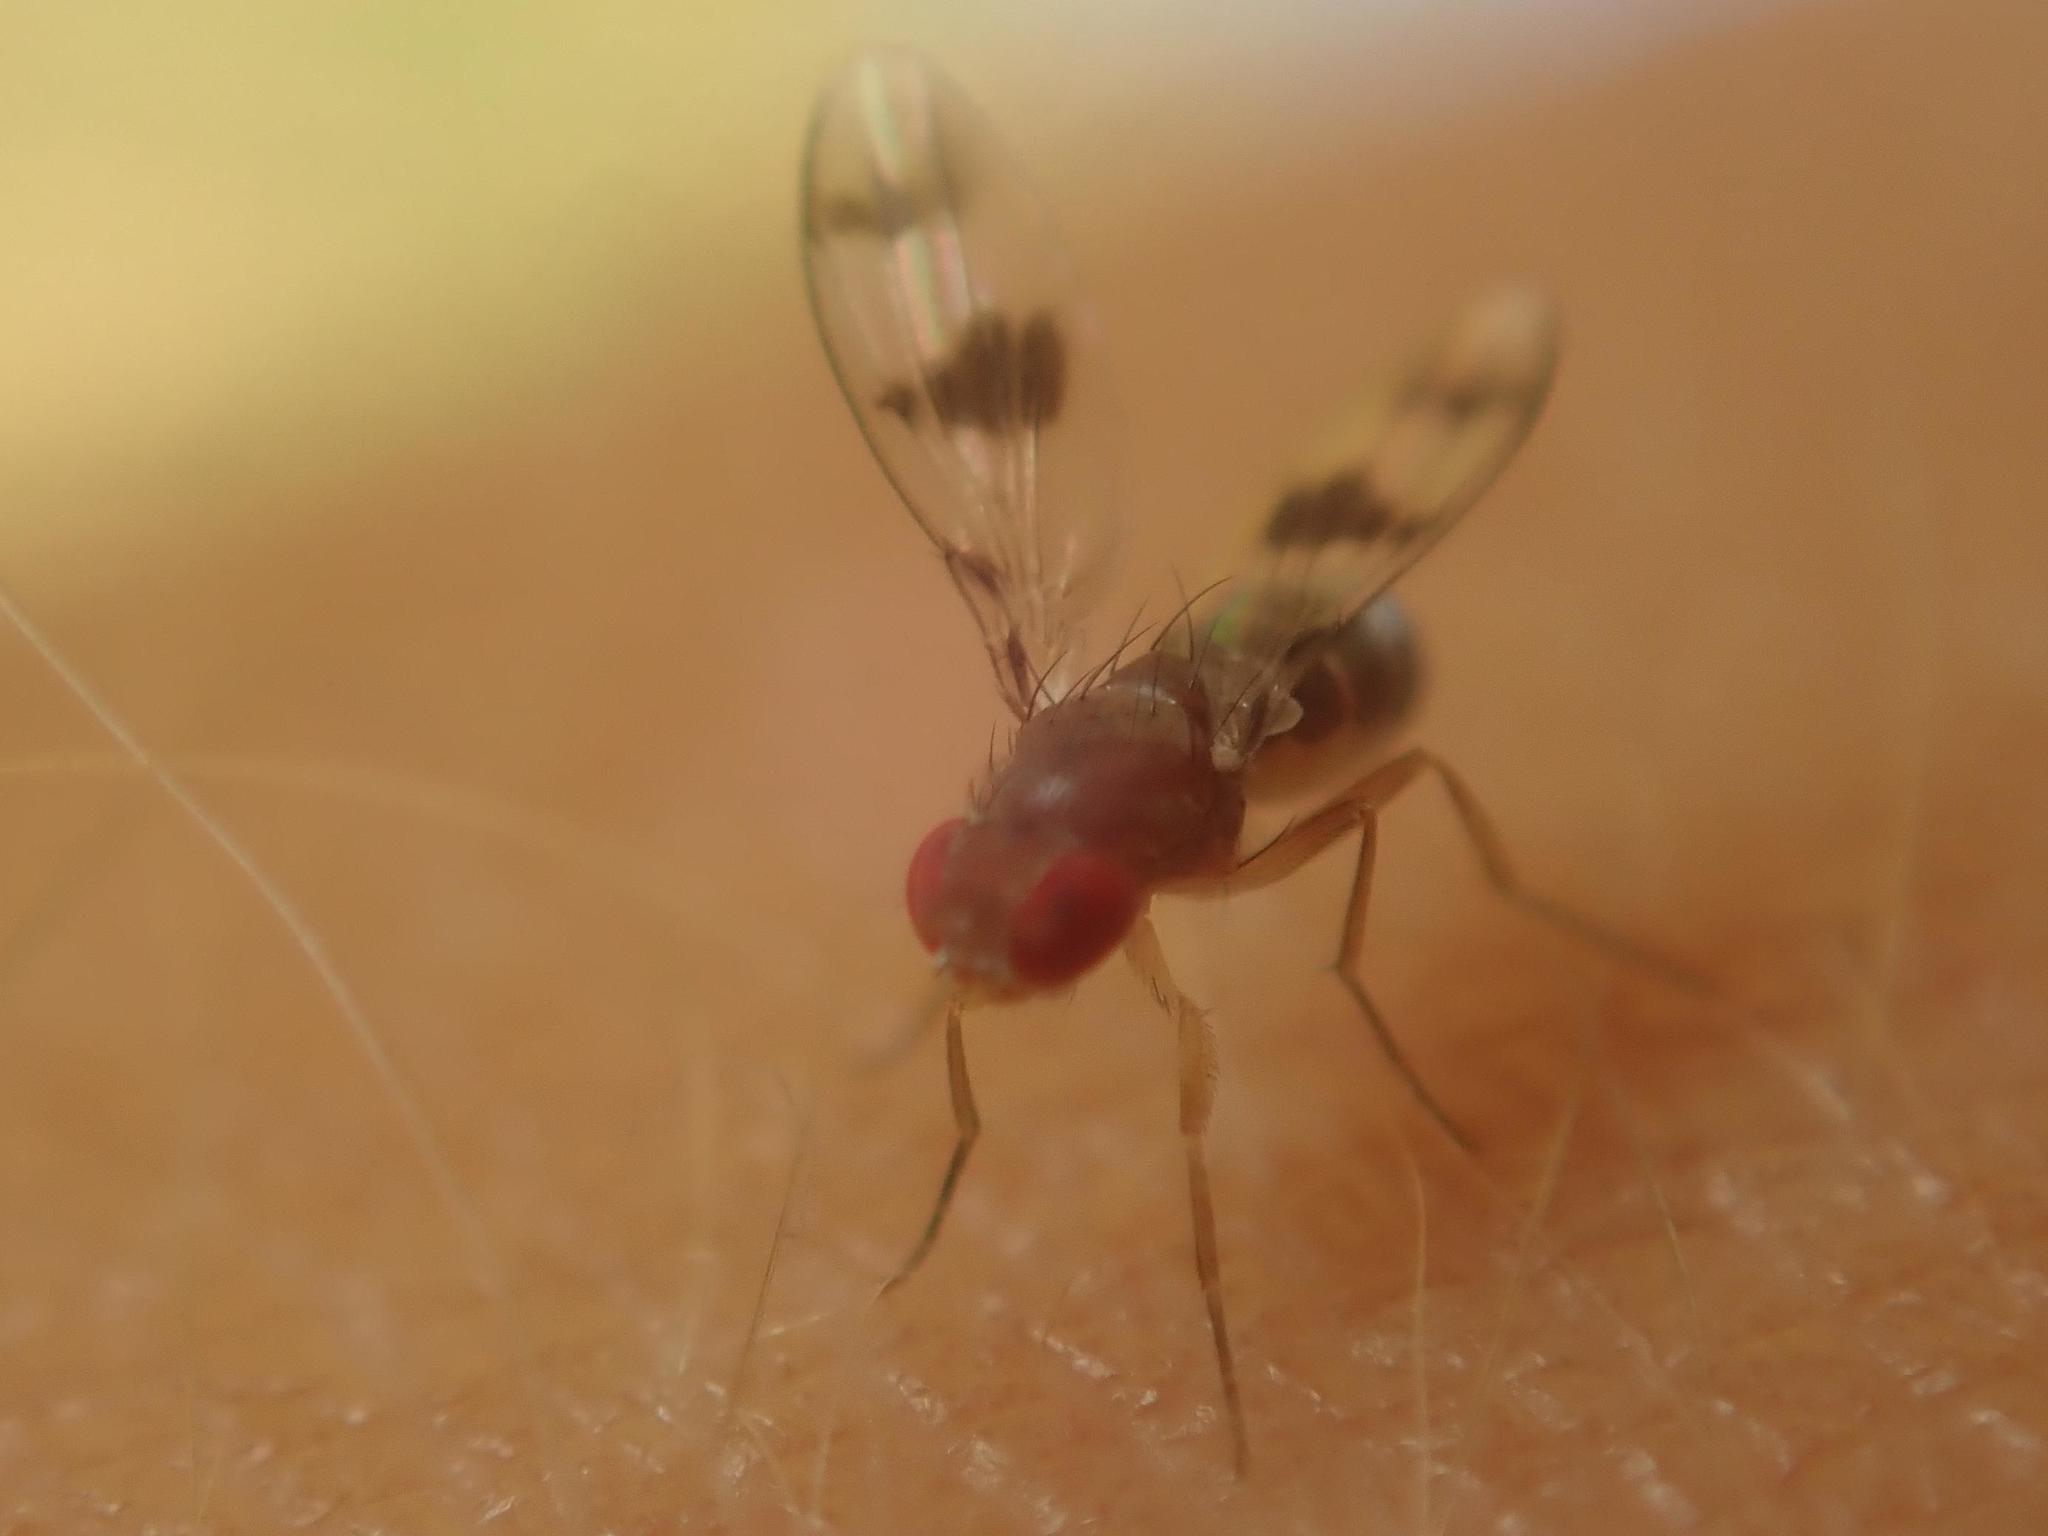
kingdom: Animalia
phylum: Arthropoda
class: Insecta
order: Diptera
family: Drosophilidae
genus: Chymomyza
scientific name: Chymomyza amoena
